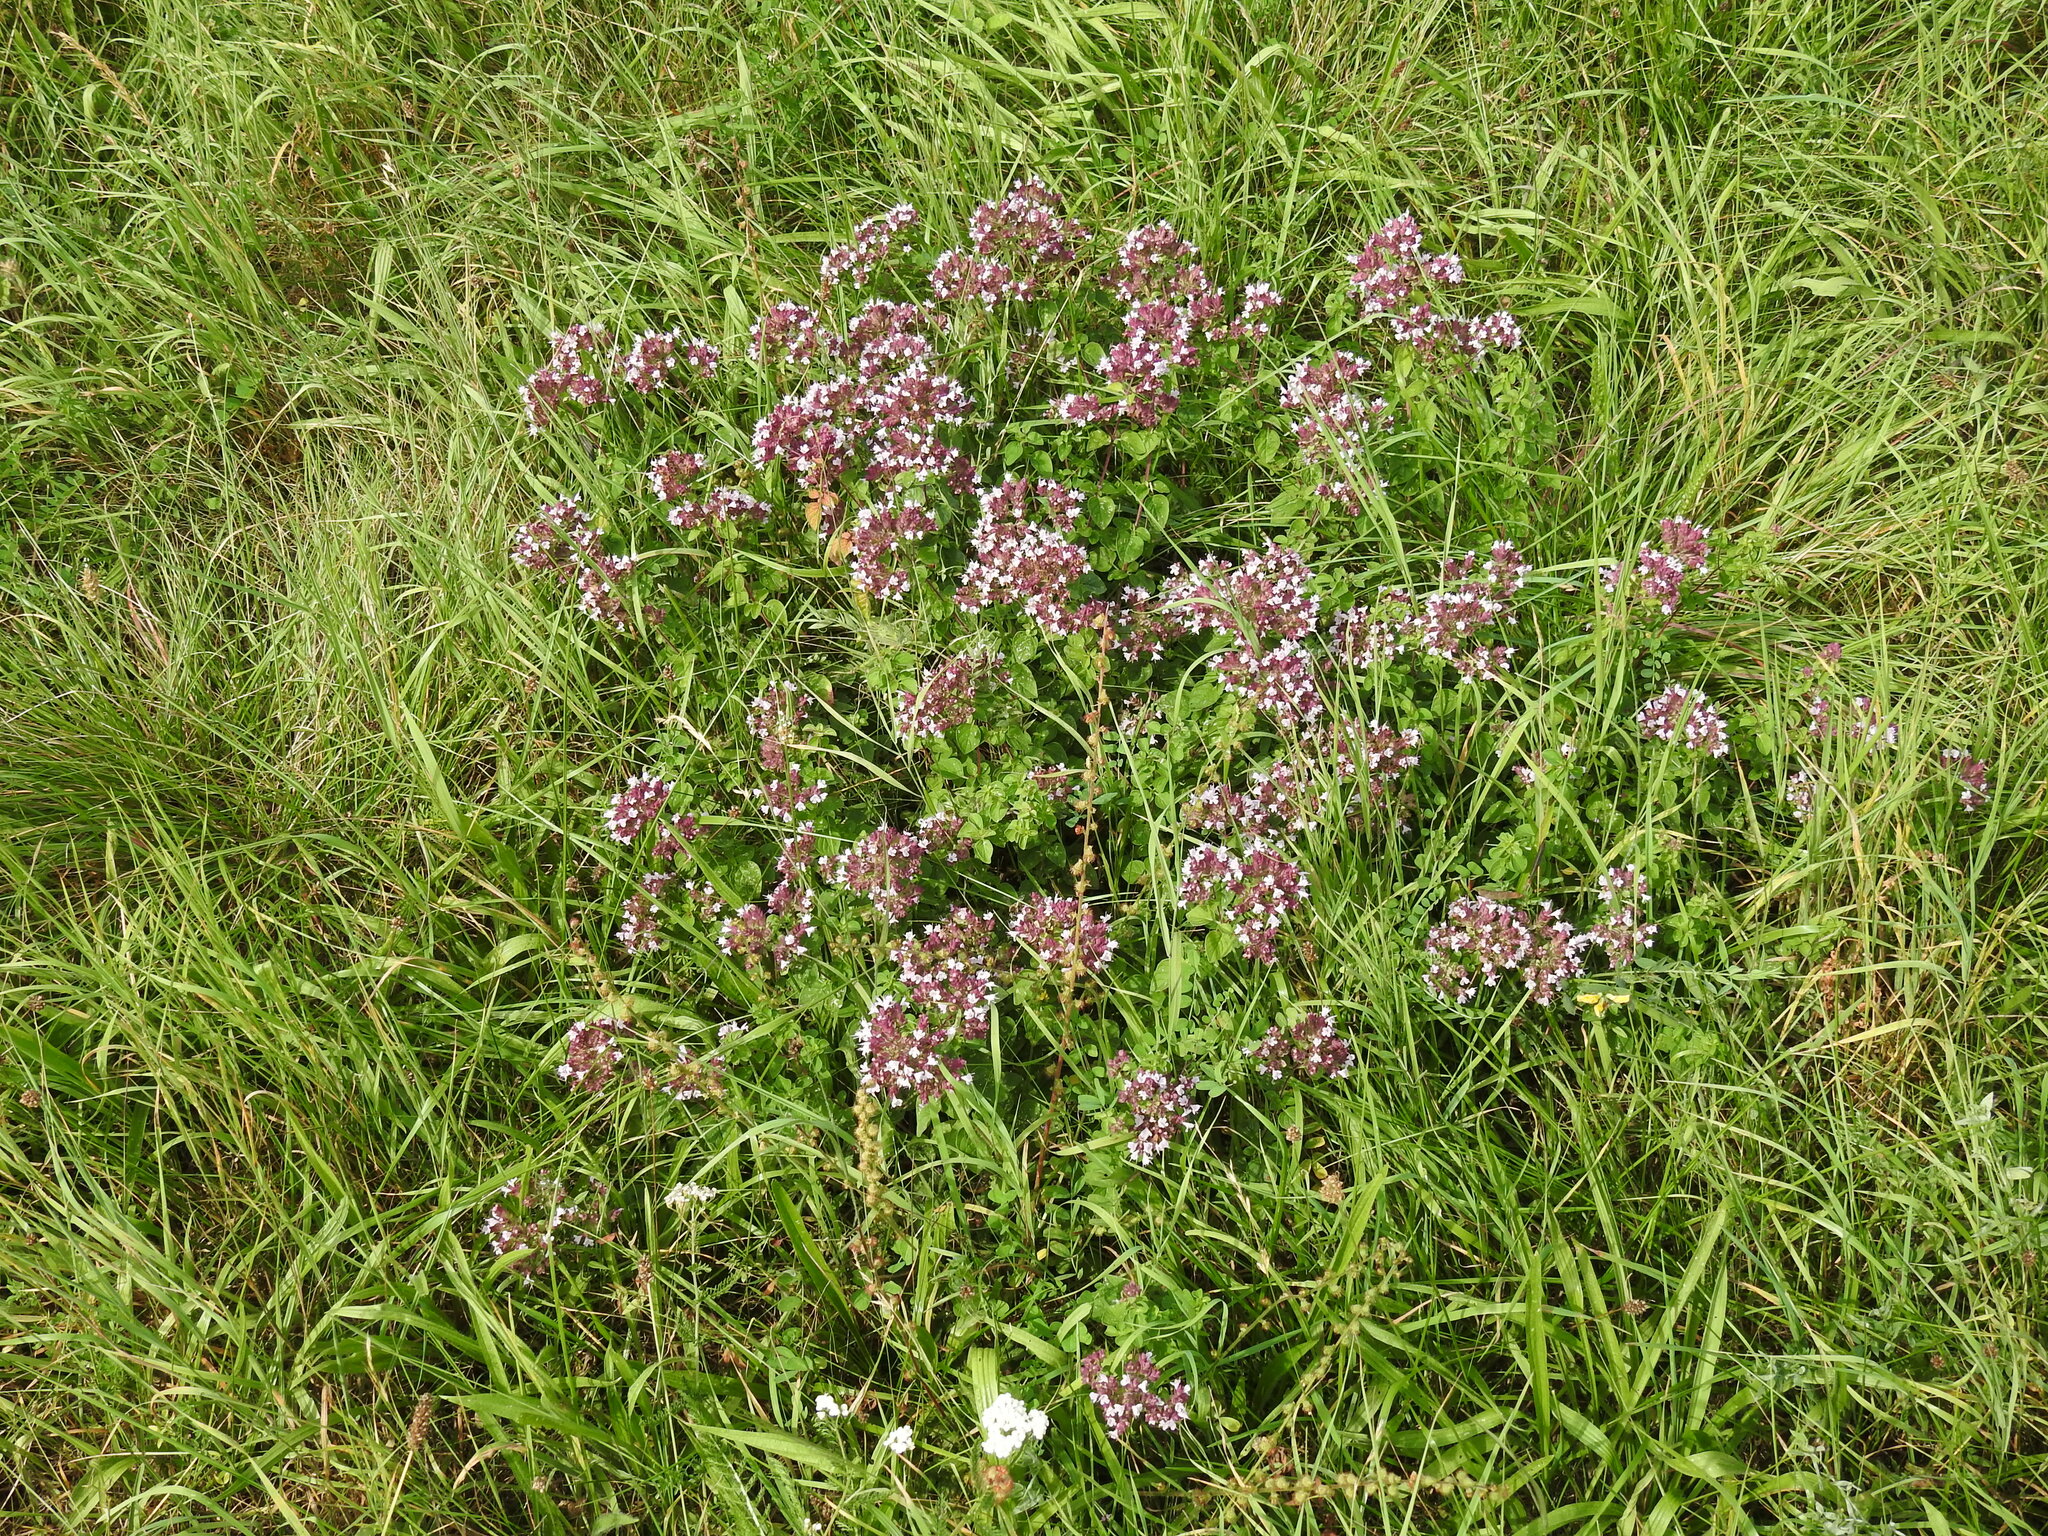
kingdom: Plantae
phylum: Tracheophyta
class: Magnoliopsida
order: Lamiales
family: Lamiaceae
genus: Origanum
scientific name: Origanum vulgare
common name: Wild marjoram
